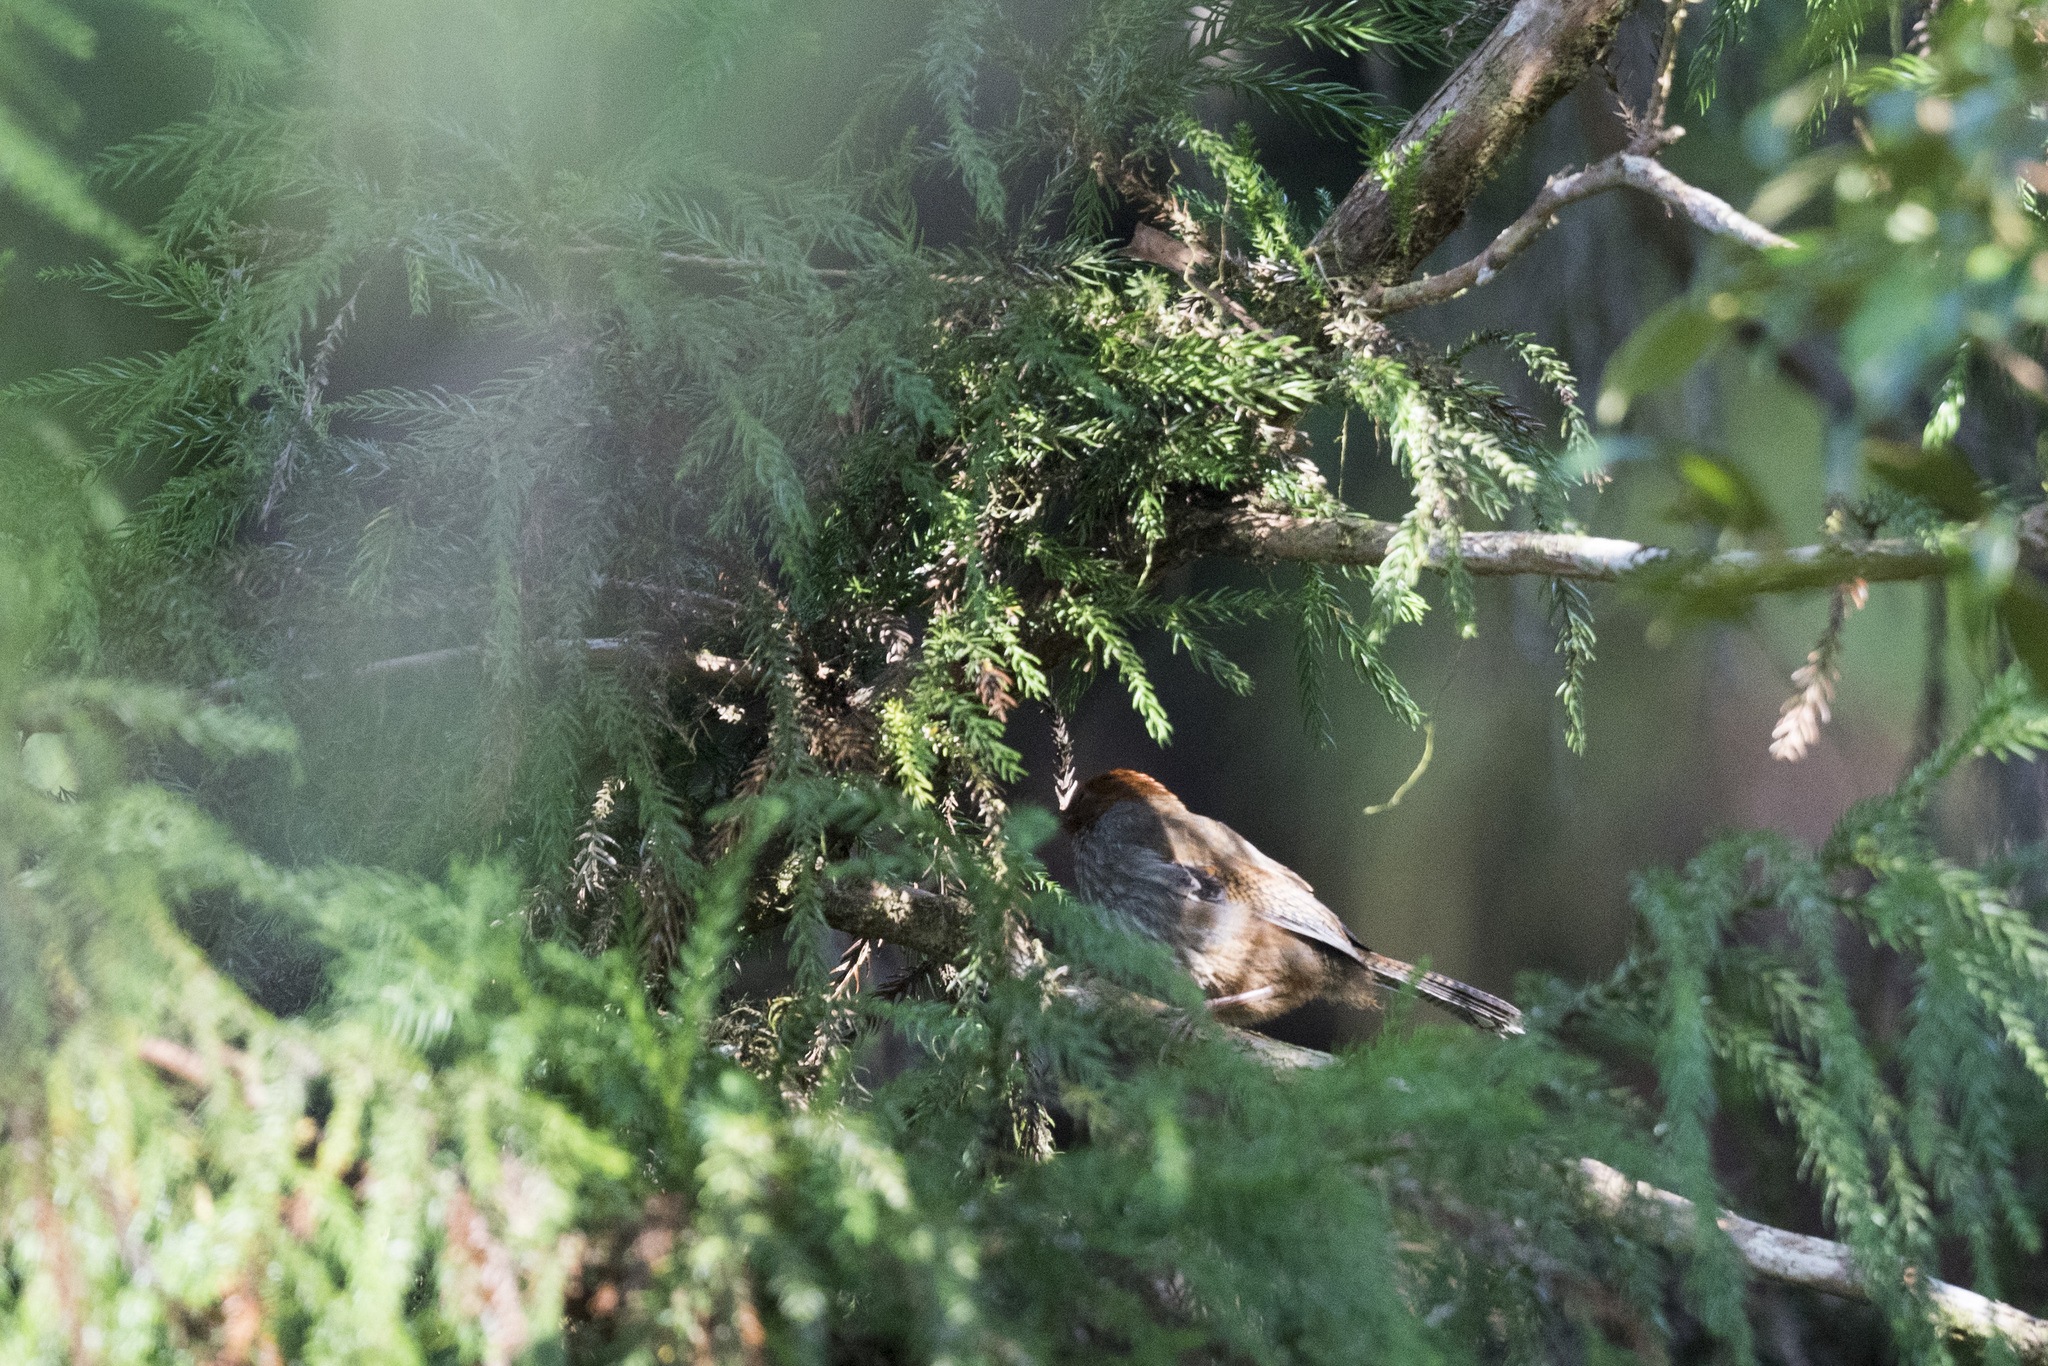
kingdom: Animalia
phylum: Chordata
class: Aves
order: Passeriformes
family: Leiothrichidae
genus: Actinodura
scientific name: Actinodura morrisoniana
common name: Taiwan barwing
